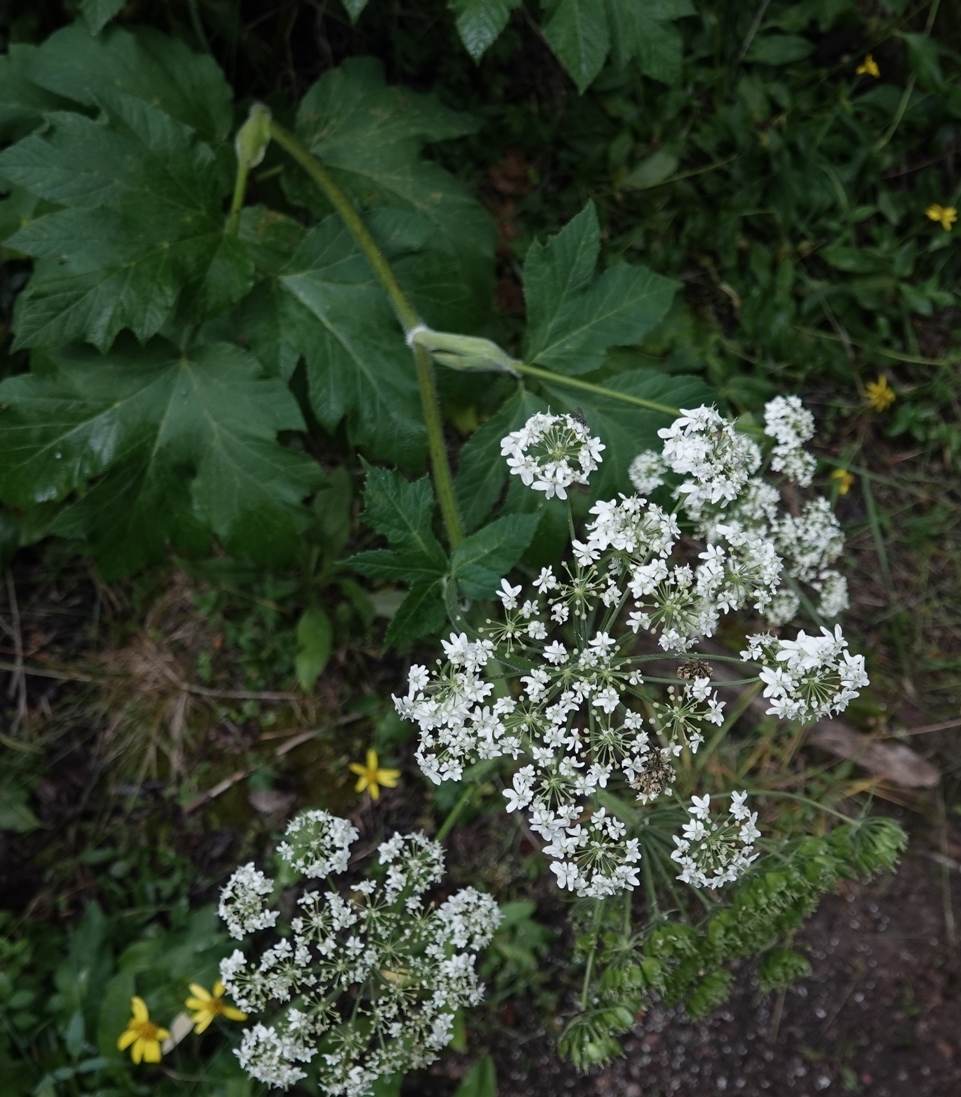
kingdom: Plantae
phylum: Tracheophyta
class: Magnoliopsida
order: Apiales
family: Apiaceae
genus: Heracleum
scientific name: Heracleum maximum
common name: American cow parsnip
